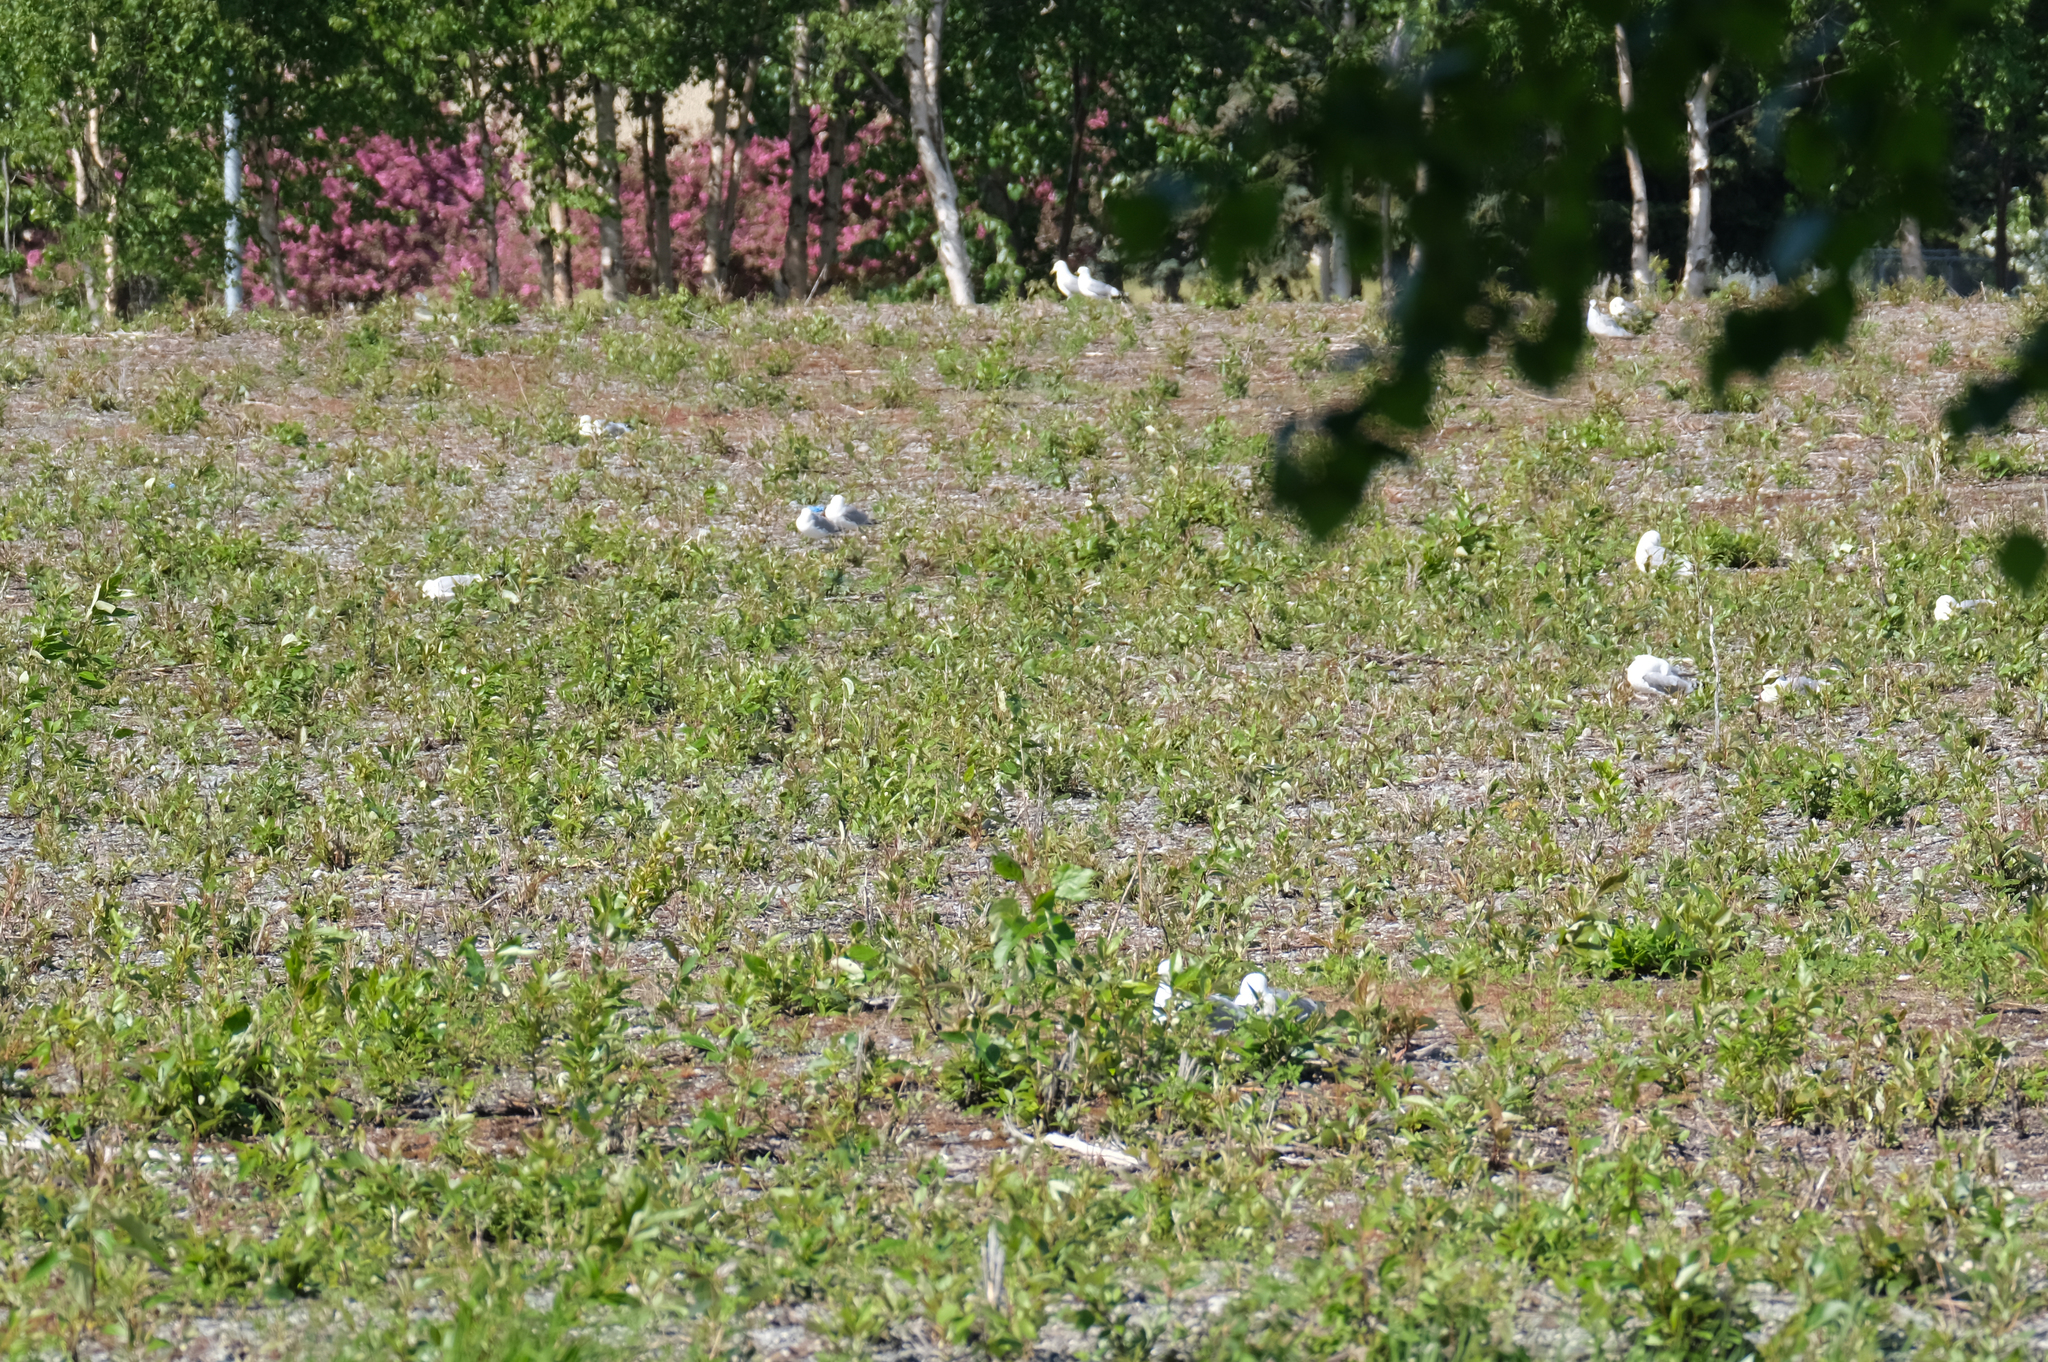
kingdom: Animalia
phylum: Chordata
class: Aves
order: Charadriiformes
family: Laridae
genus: Larus
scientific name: Larus brachyrhynchus
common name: Short-billed gull
